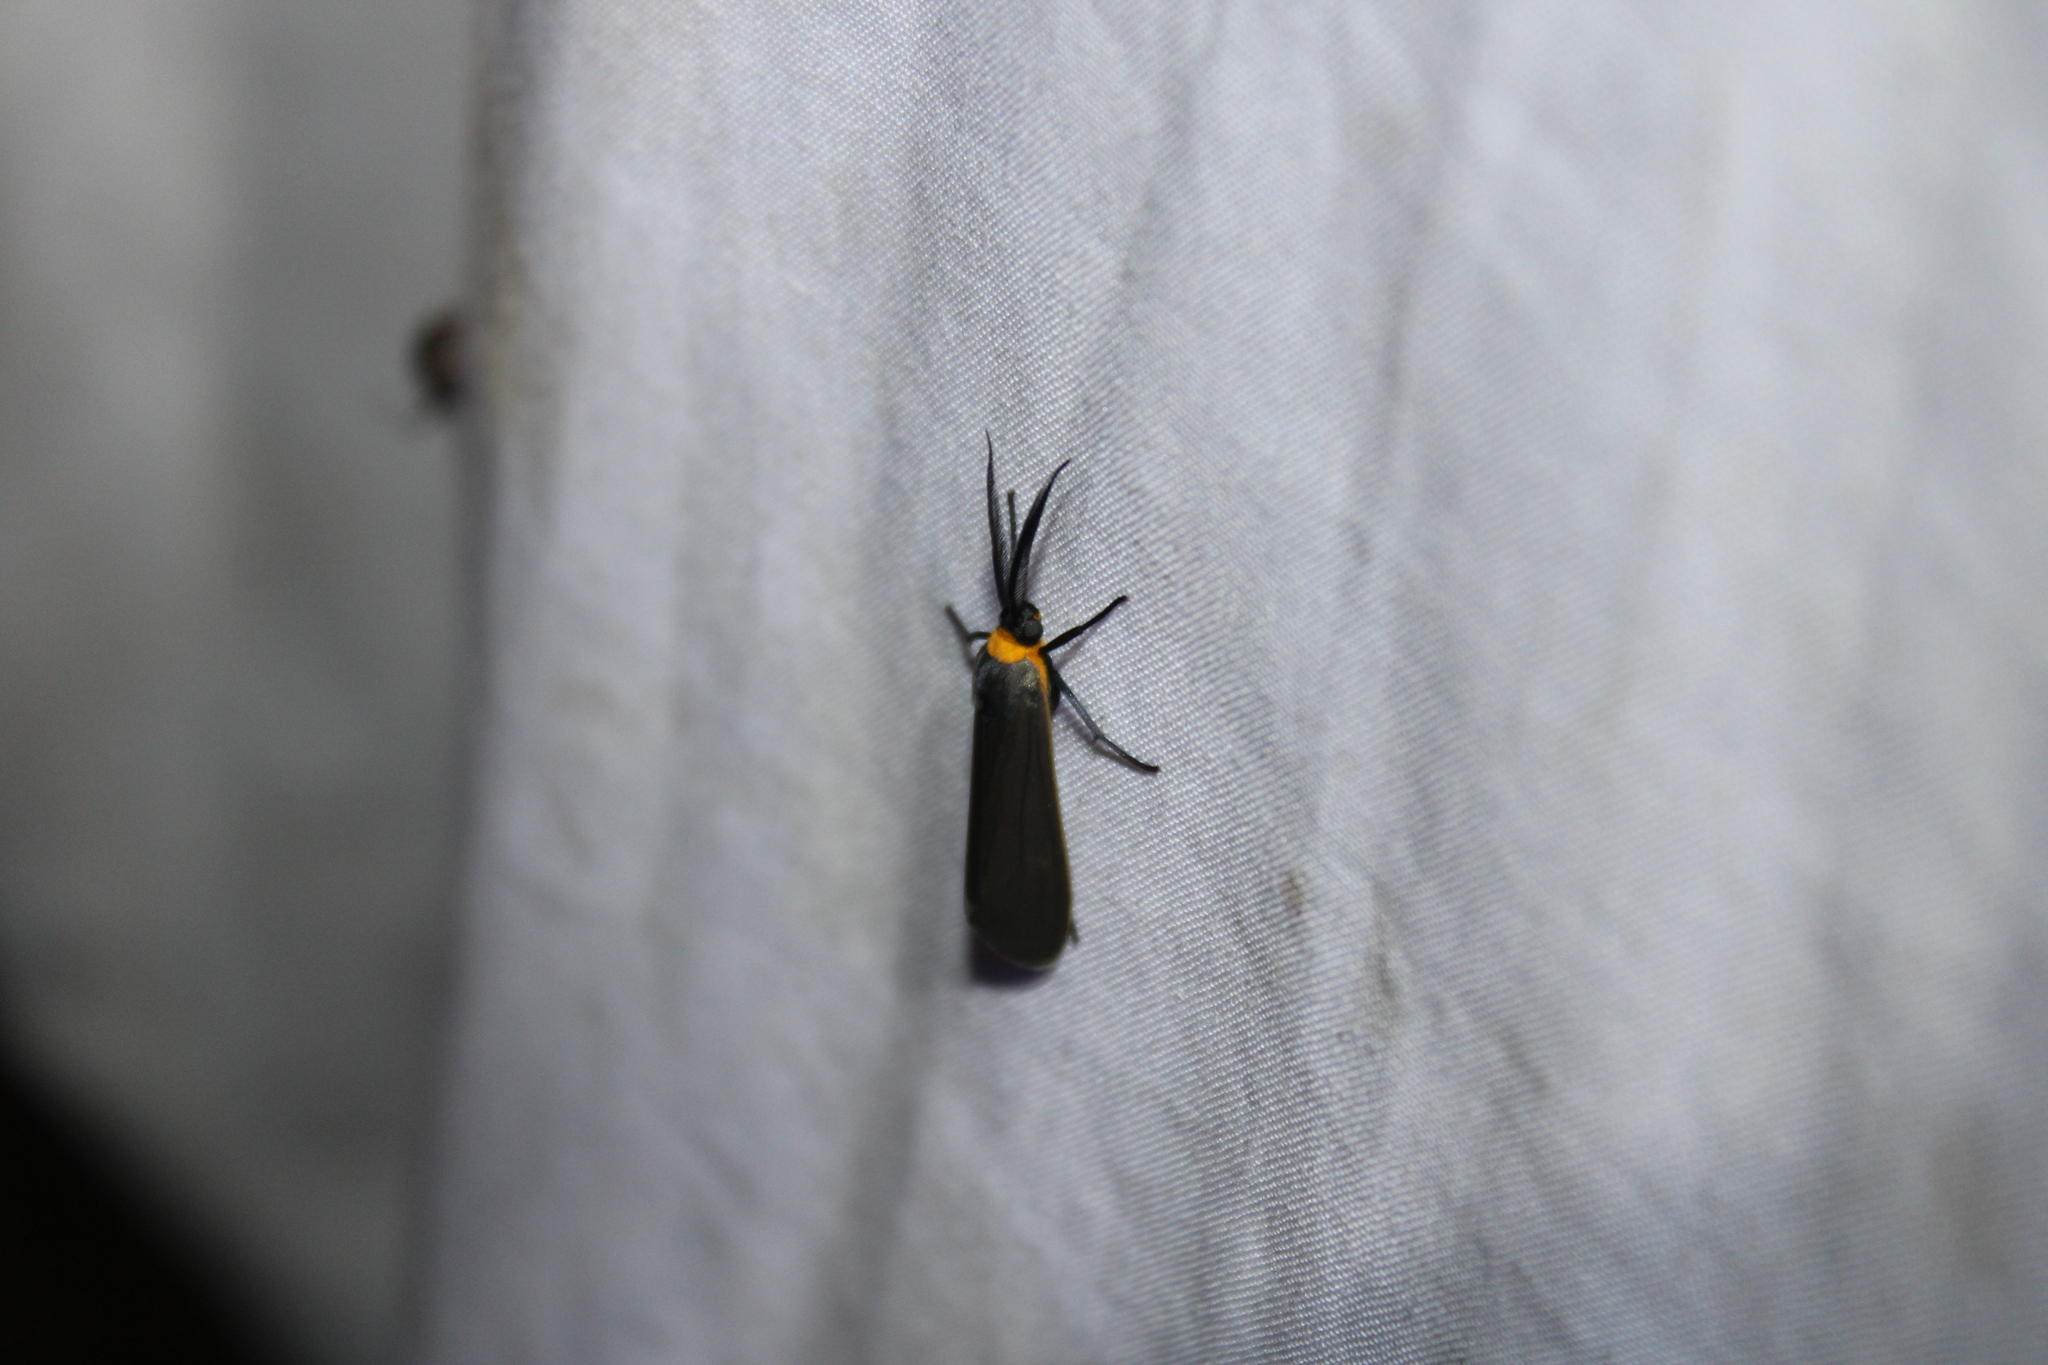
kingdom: Animalia
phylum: Arthropoda
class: Insecta
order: Lepidoptera
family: Erebidae
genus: Cisseps
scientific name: Cisseps fulvicollis
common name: Yellow-collared scape moth
